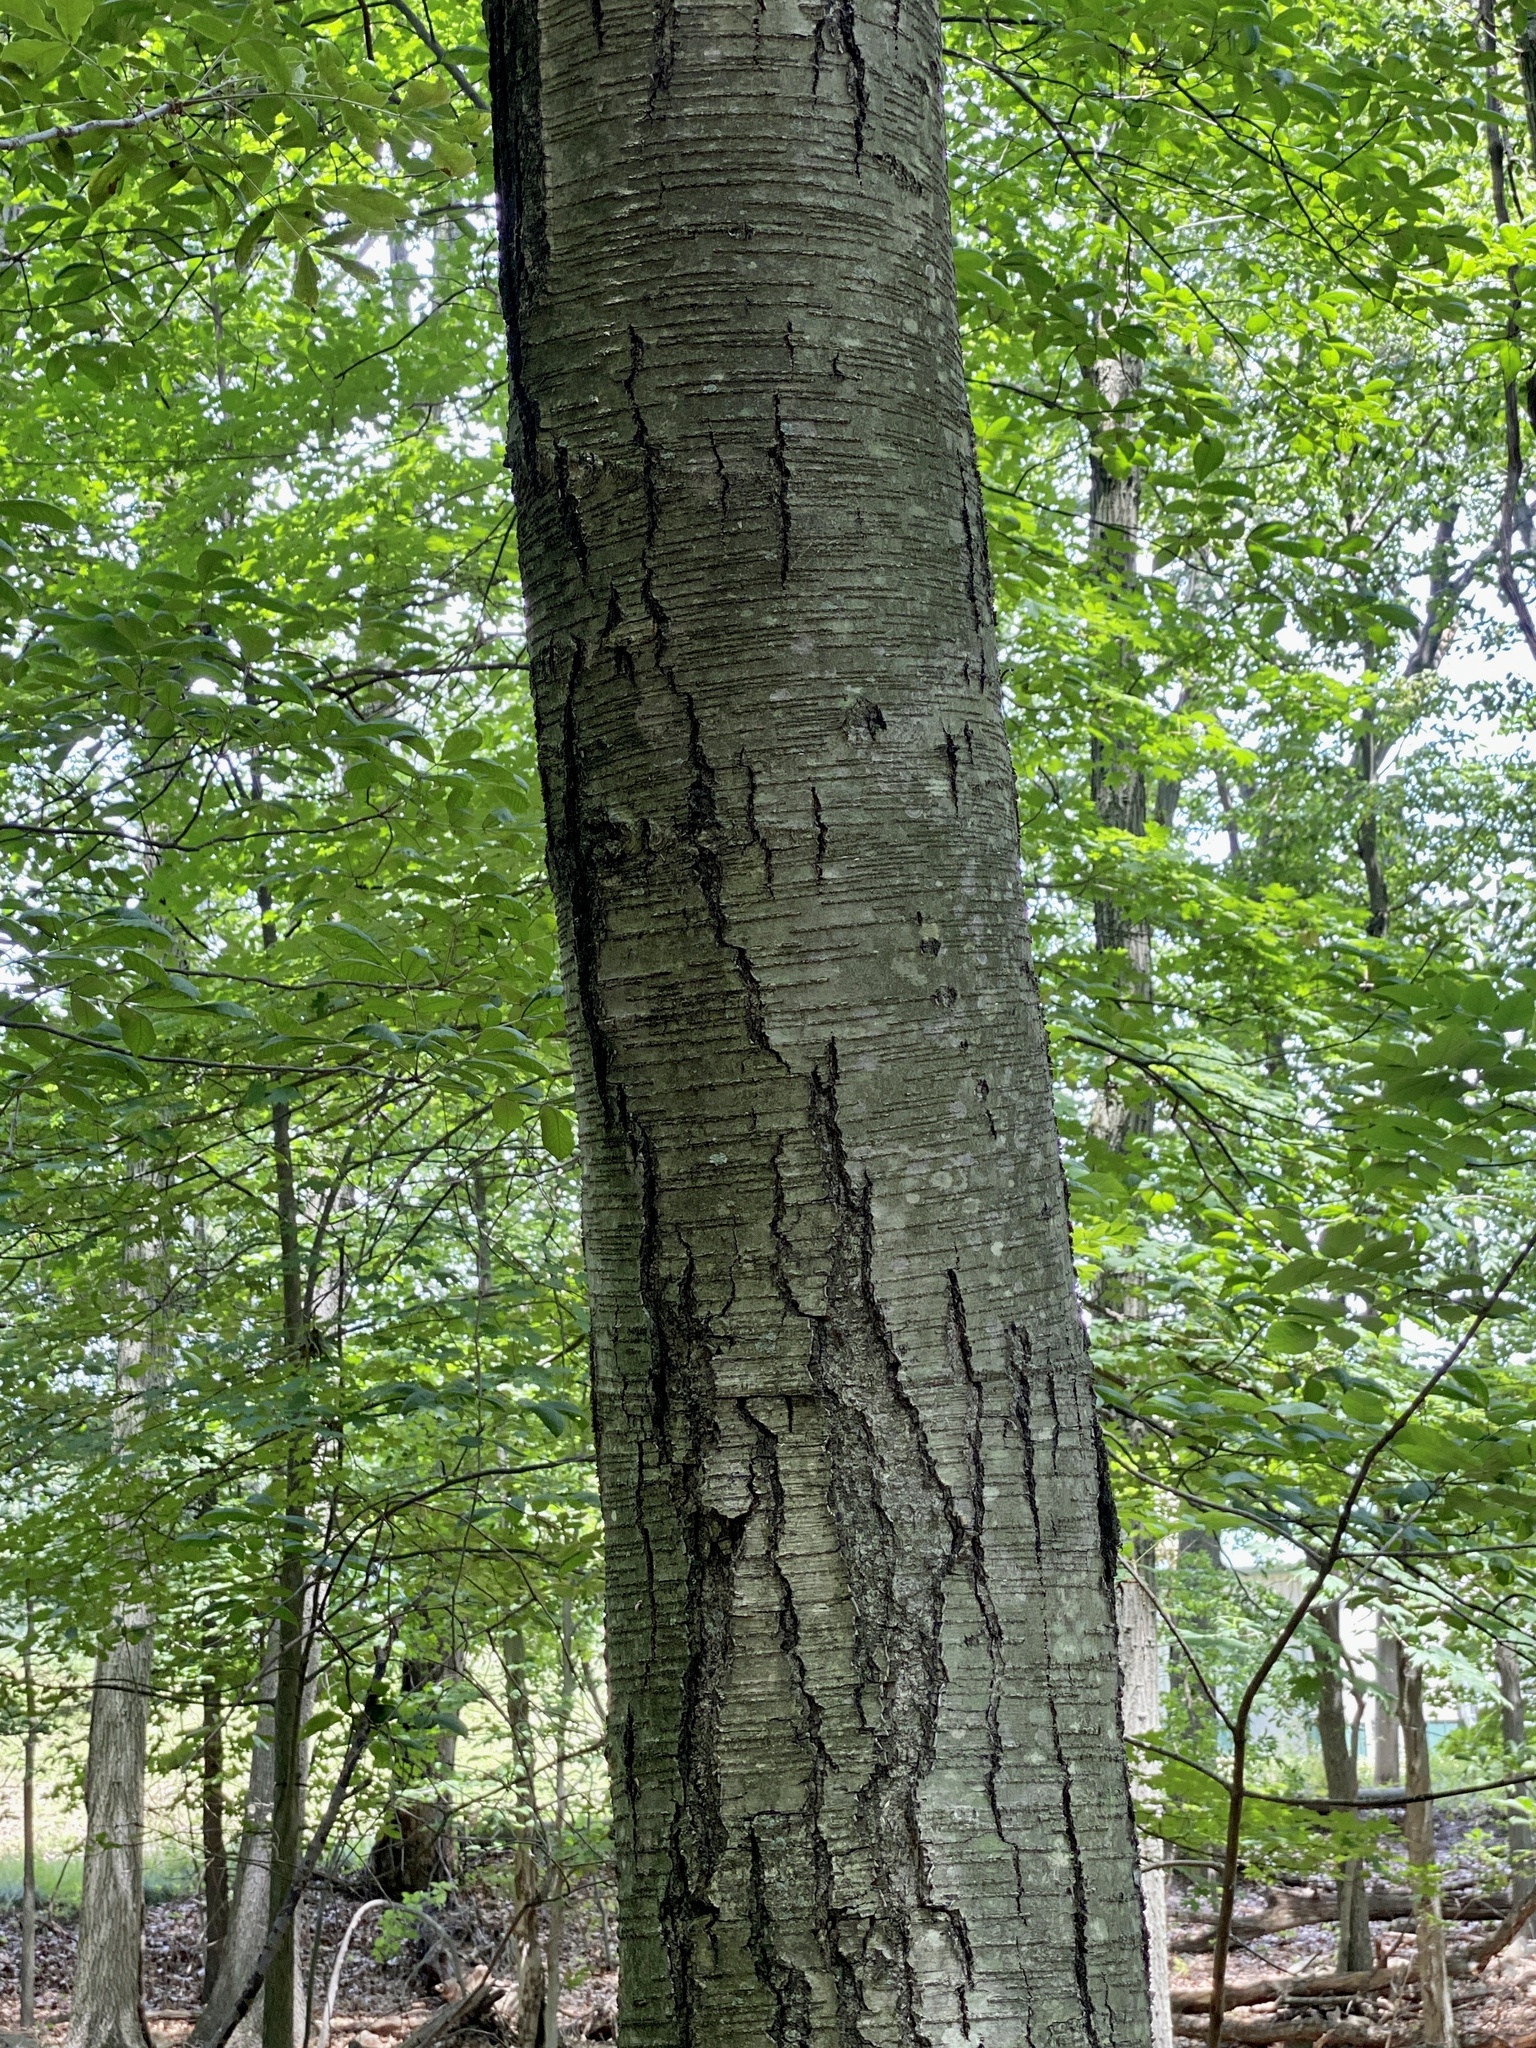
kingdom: Plantae
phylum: Tracheophyta
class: Magnoliopsida
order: Fagales
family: Betulaceae
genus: Betula
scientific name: Betula lenta
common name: Black birch
